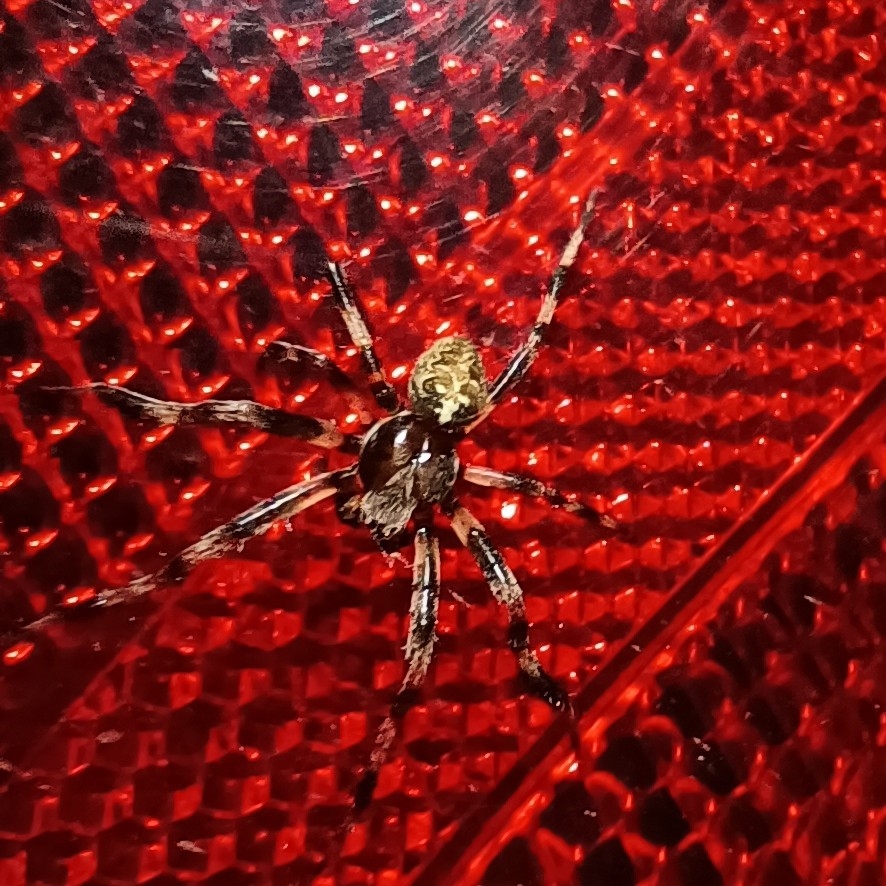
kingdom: Animalia
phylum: Arthropoda
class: Arachnida
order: Araneae
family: Araneidae
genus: Araneus
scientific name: Araneus marmoreus
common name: Marbled orbweaver
